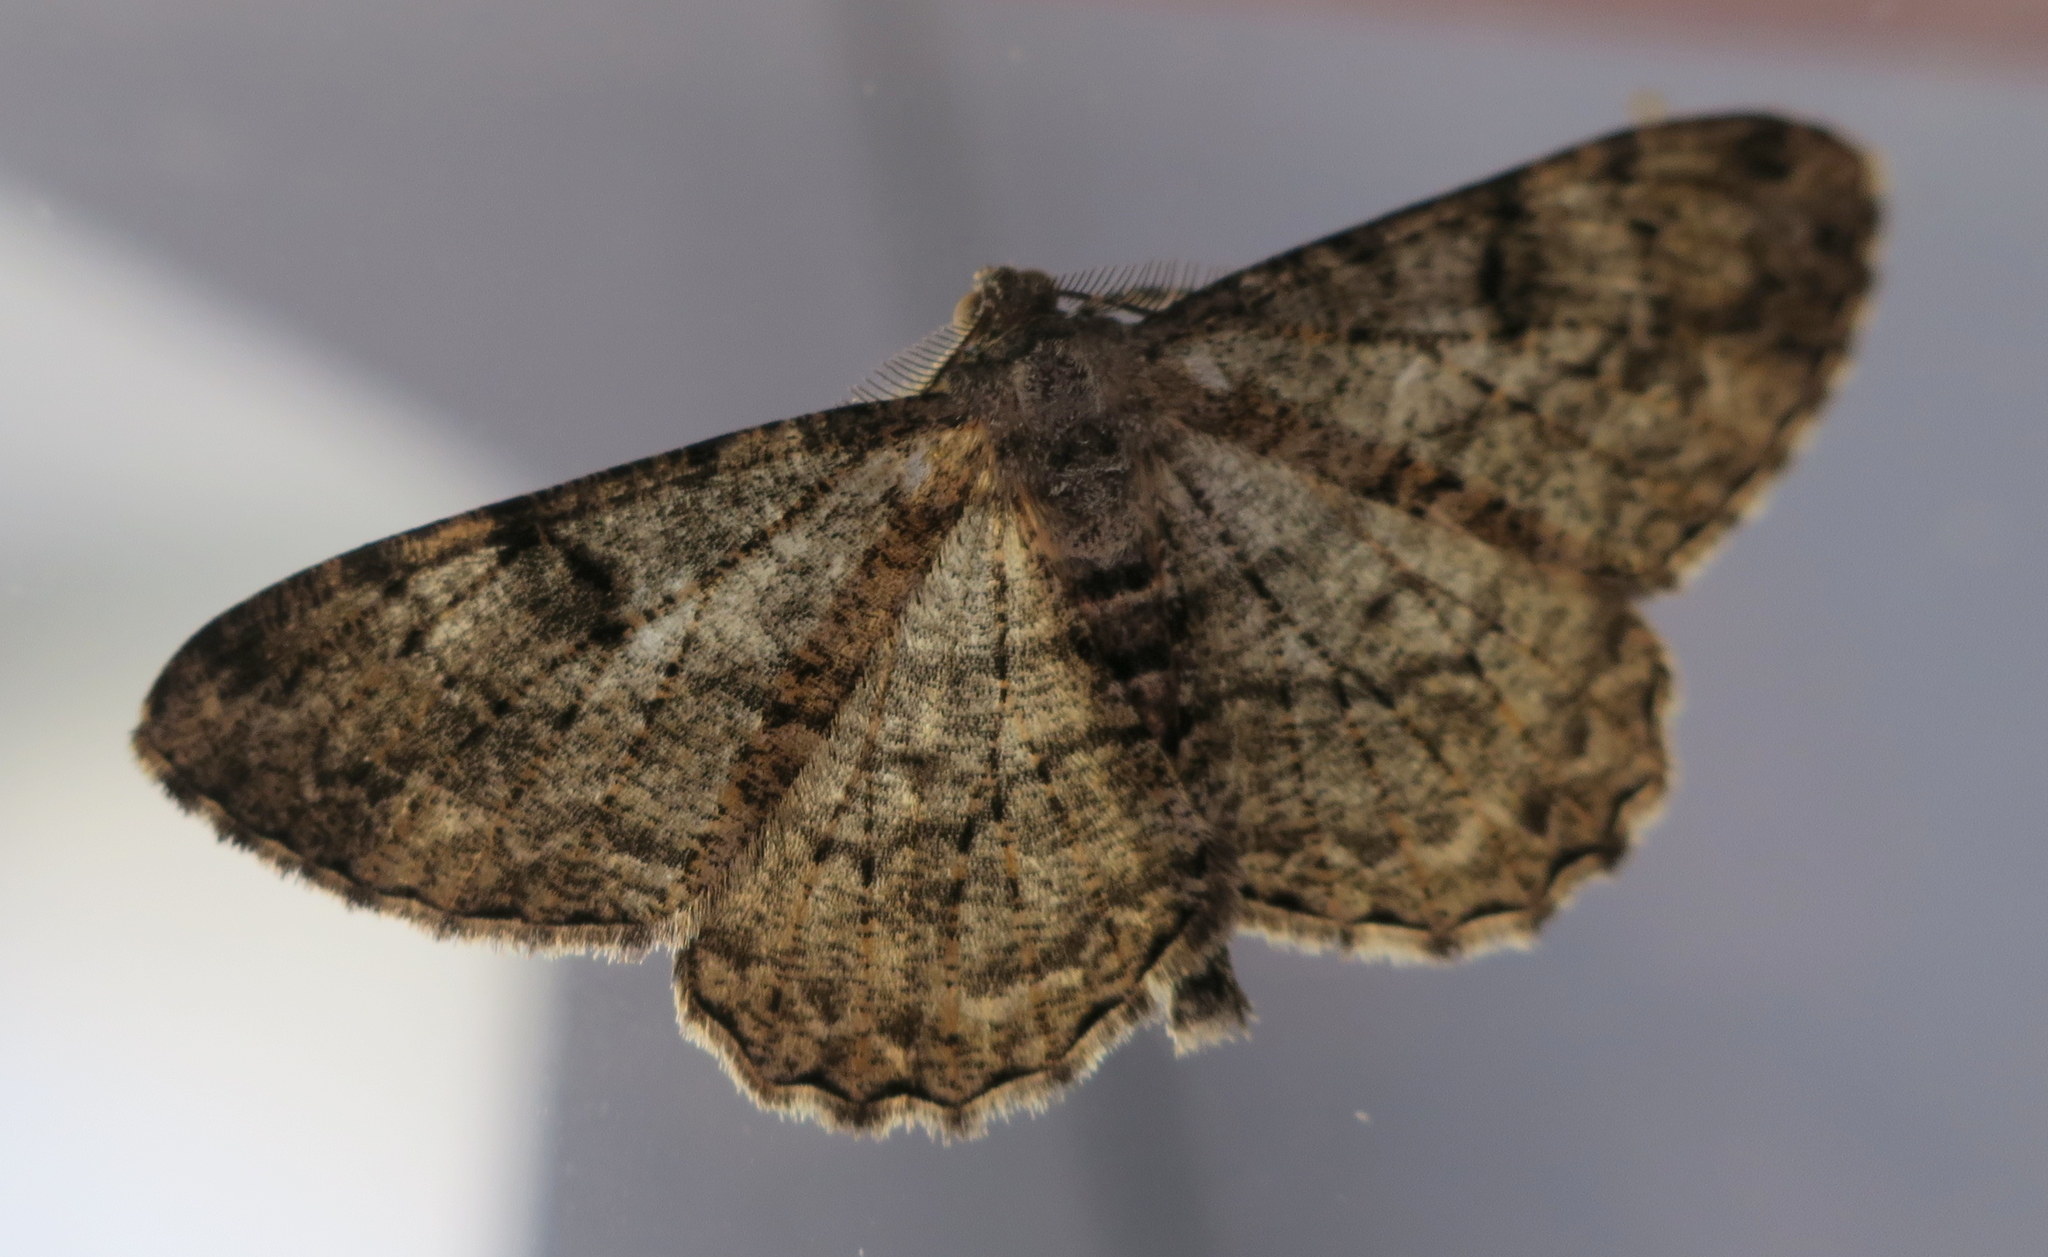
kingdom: Animalia
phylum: Arthropoda
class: Insecta
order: Lepidoptera
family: Geometridae
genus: Peribatodes
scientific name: Peribatodes rhomboidaria
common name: Willow beauty
